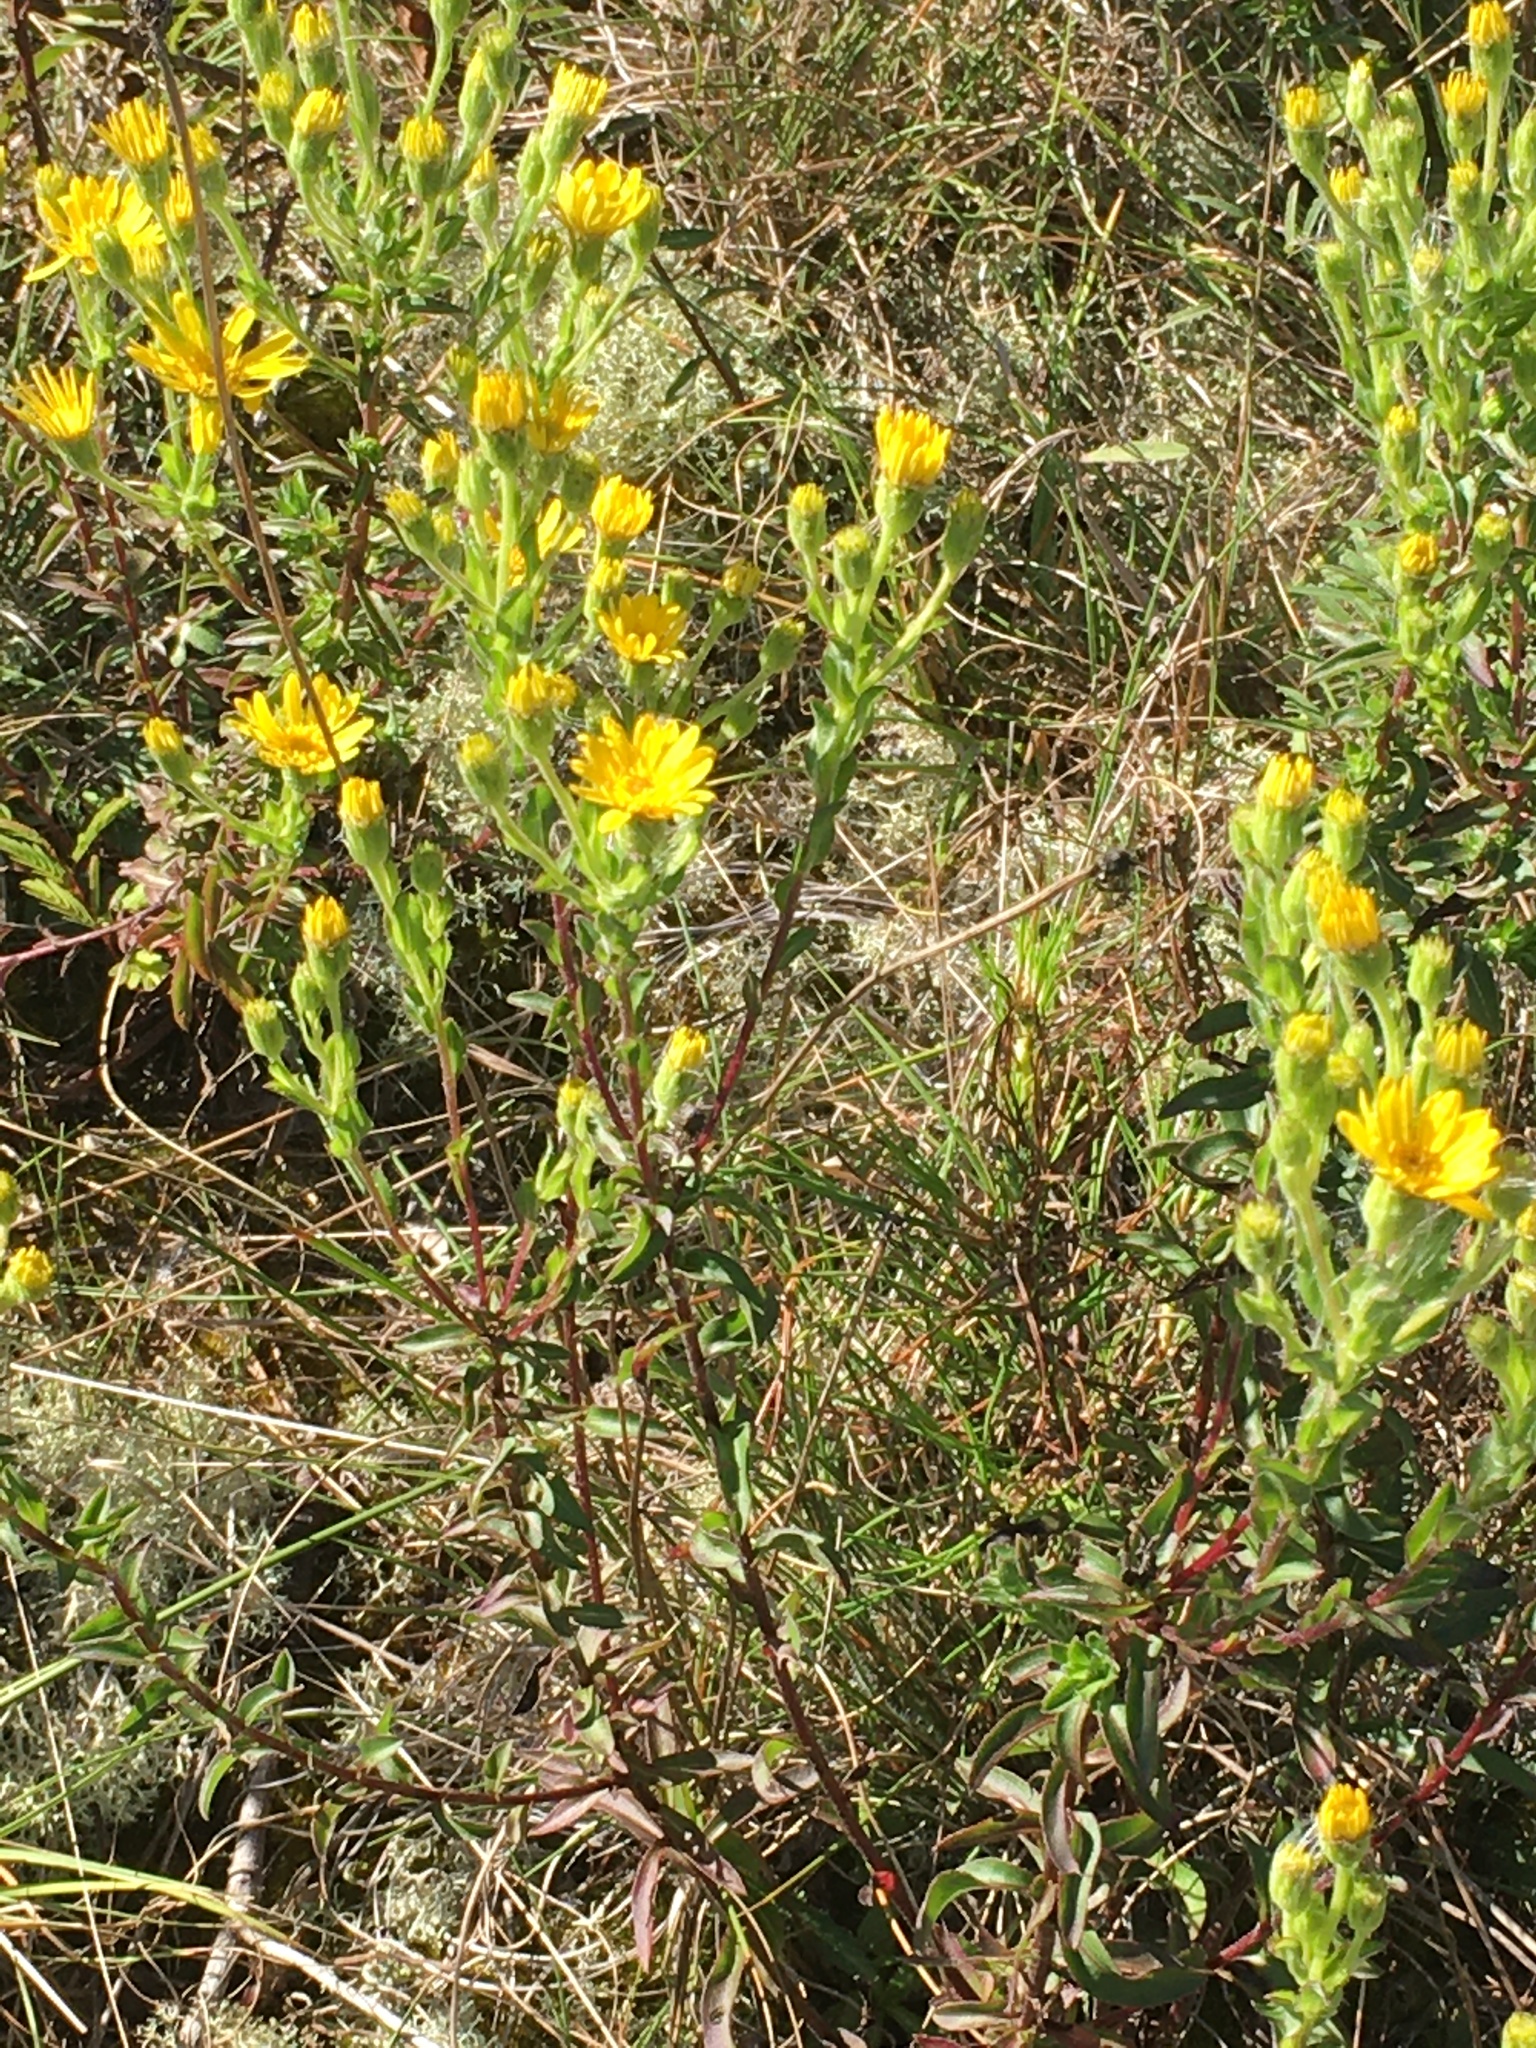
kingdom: Plantae
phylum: Tracheophyta
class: Magnoliopsida
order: Asterales
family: Asteraceae
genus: Chrysopsis
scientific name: Chrysopsis mariana
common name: Maryland golden-aster
